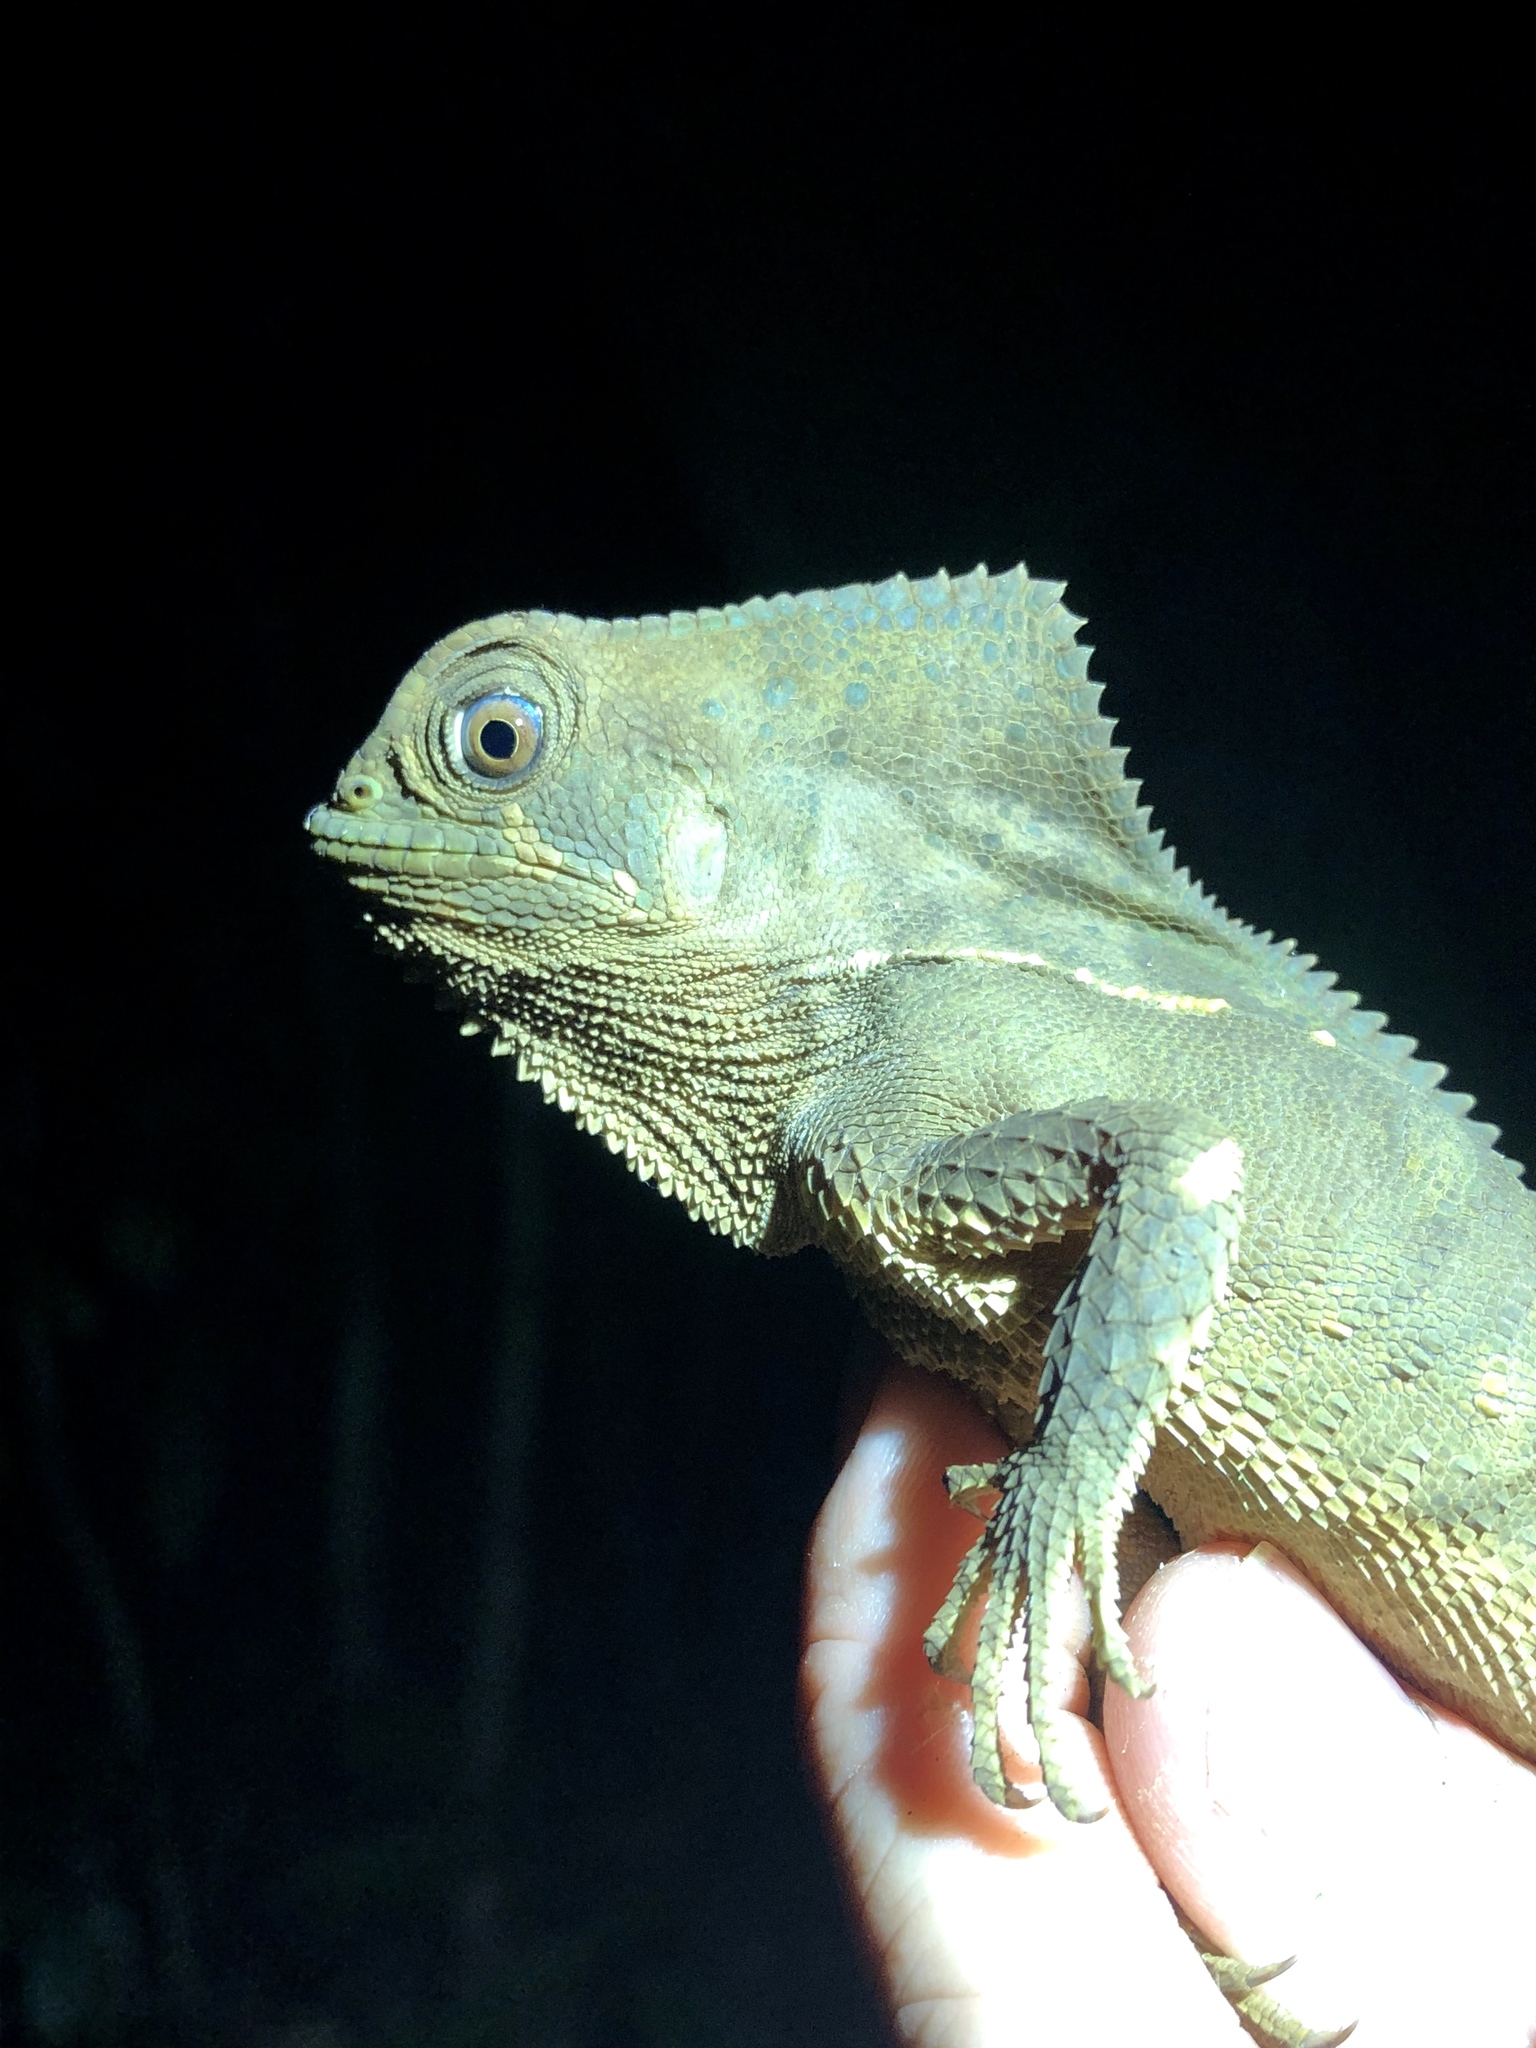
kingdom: Animalia
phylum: Chordata
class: Squamata
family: Corytophanidae
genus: Corytophanes
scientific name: Corytophanes cristatus
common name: Smooth helmeted iguana
